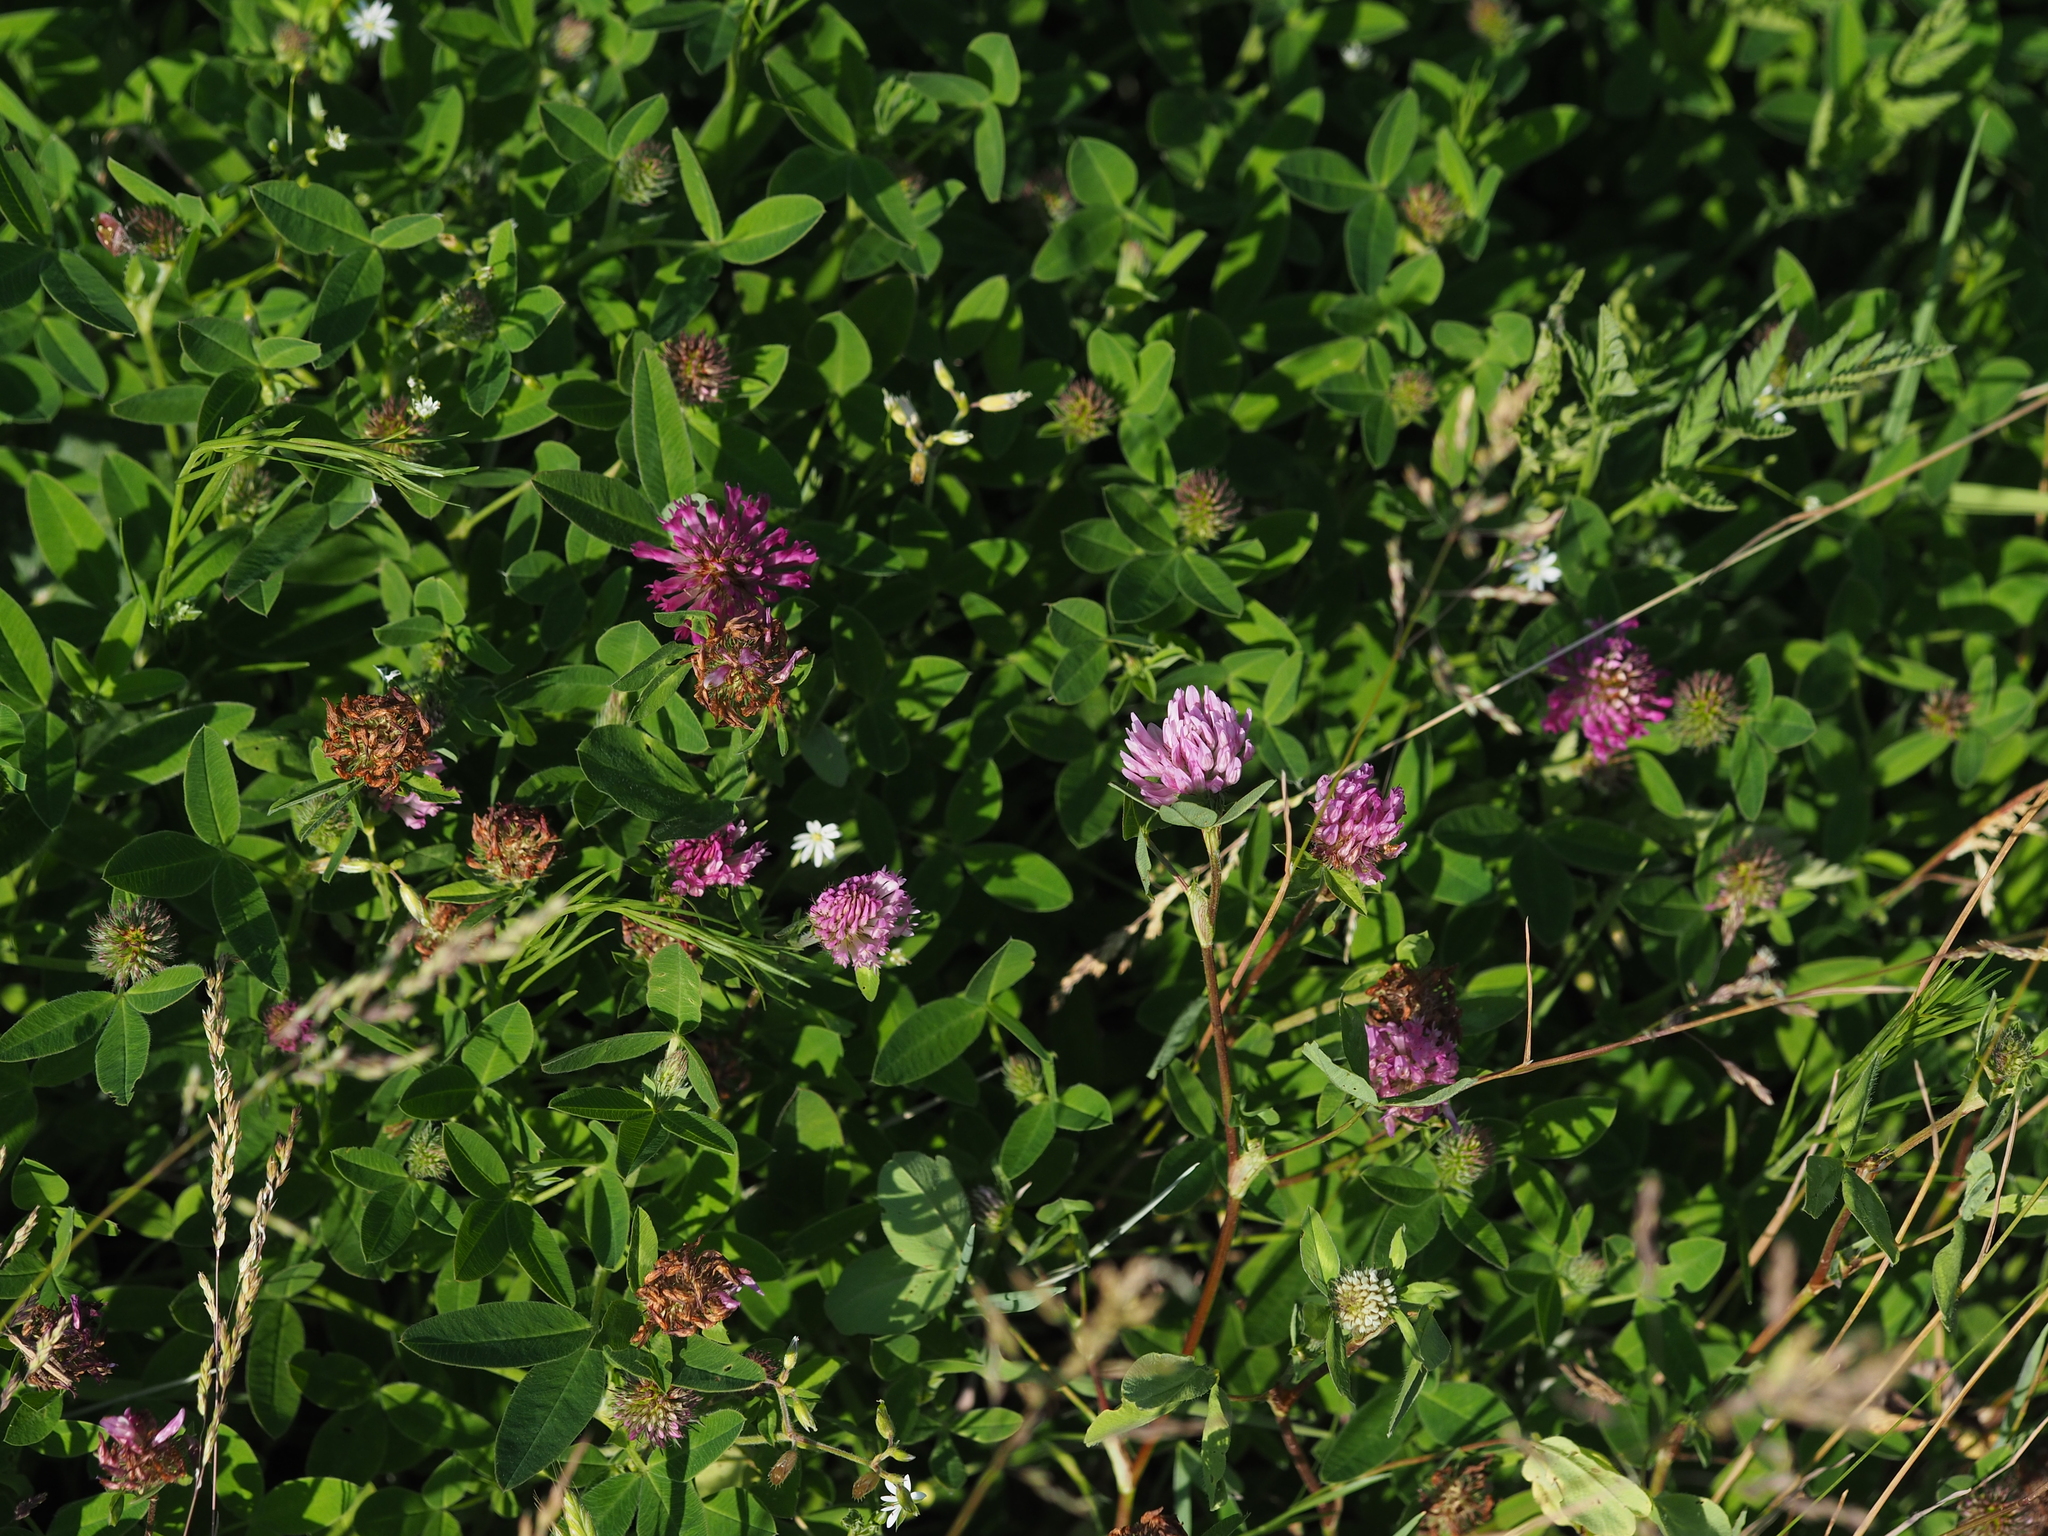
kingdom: Plantae
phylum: Tracheophyta
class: Magnoliopsida
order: Fabales
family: Fabaceae
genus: Trifolium
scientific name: Trifolium pratense
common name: Red clover
